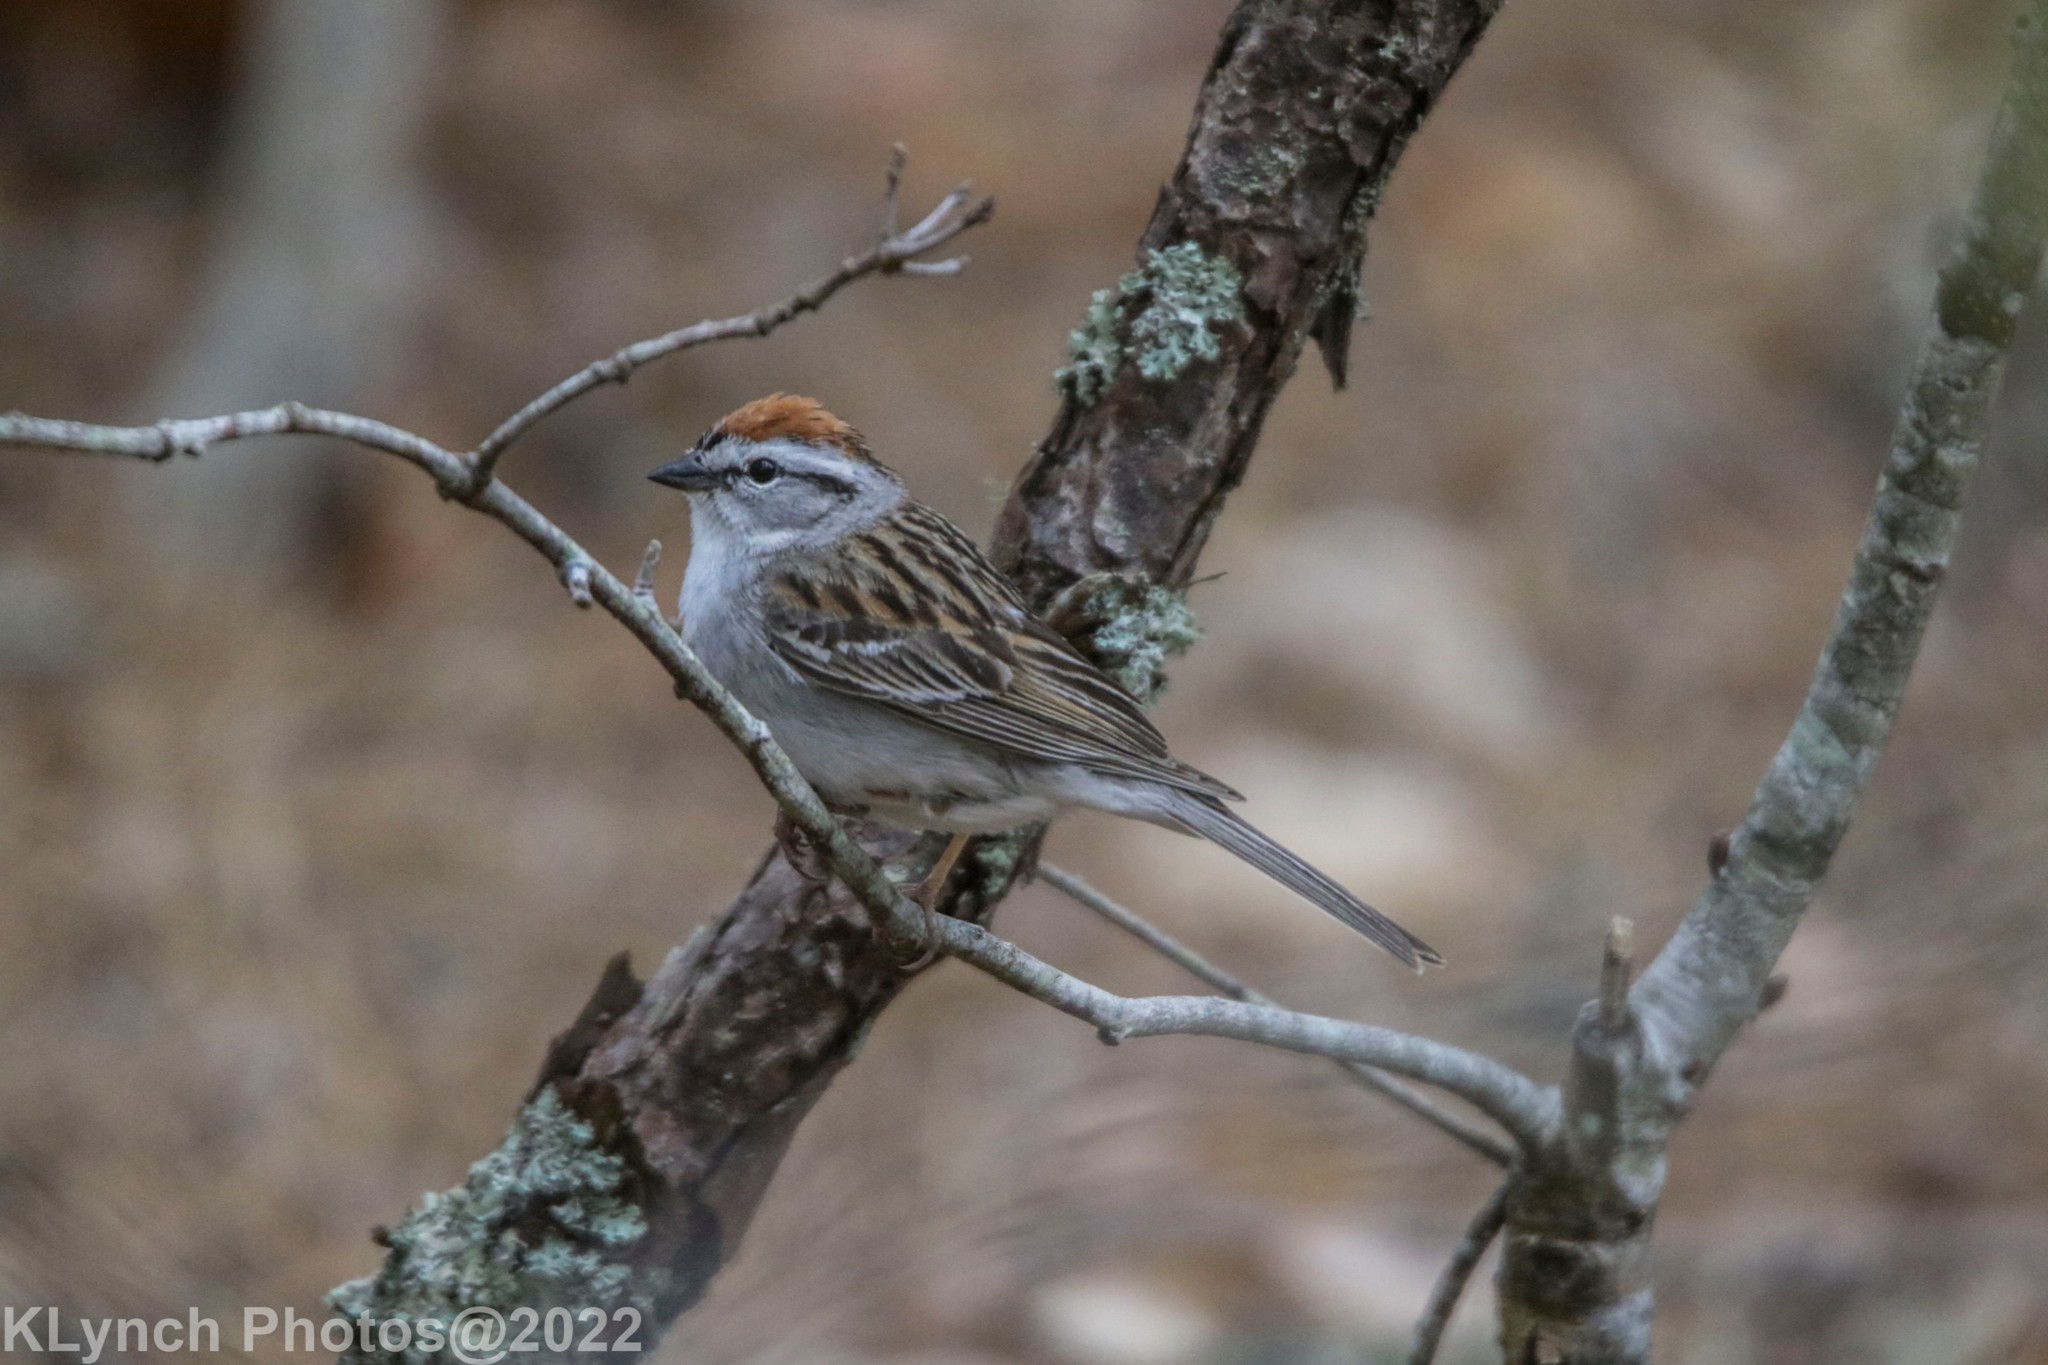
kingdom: Animalia
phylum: Chordata
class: Aves
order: Passeriformes
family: Passerellidae
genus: Spizella
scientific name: Spizella passerina
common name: Chipping sparrow
